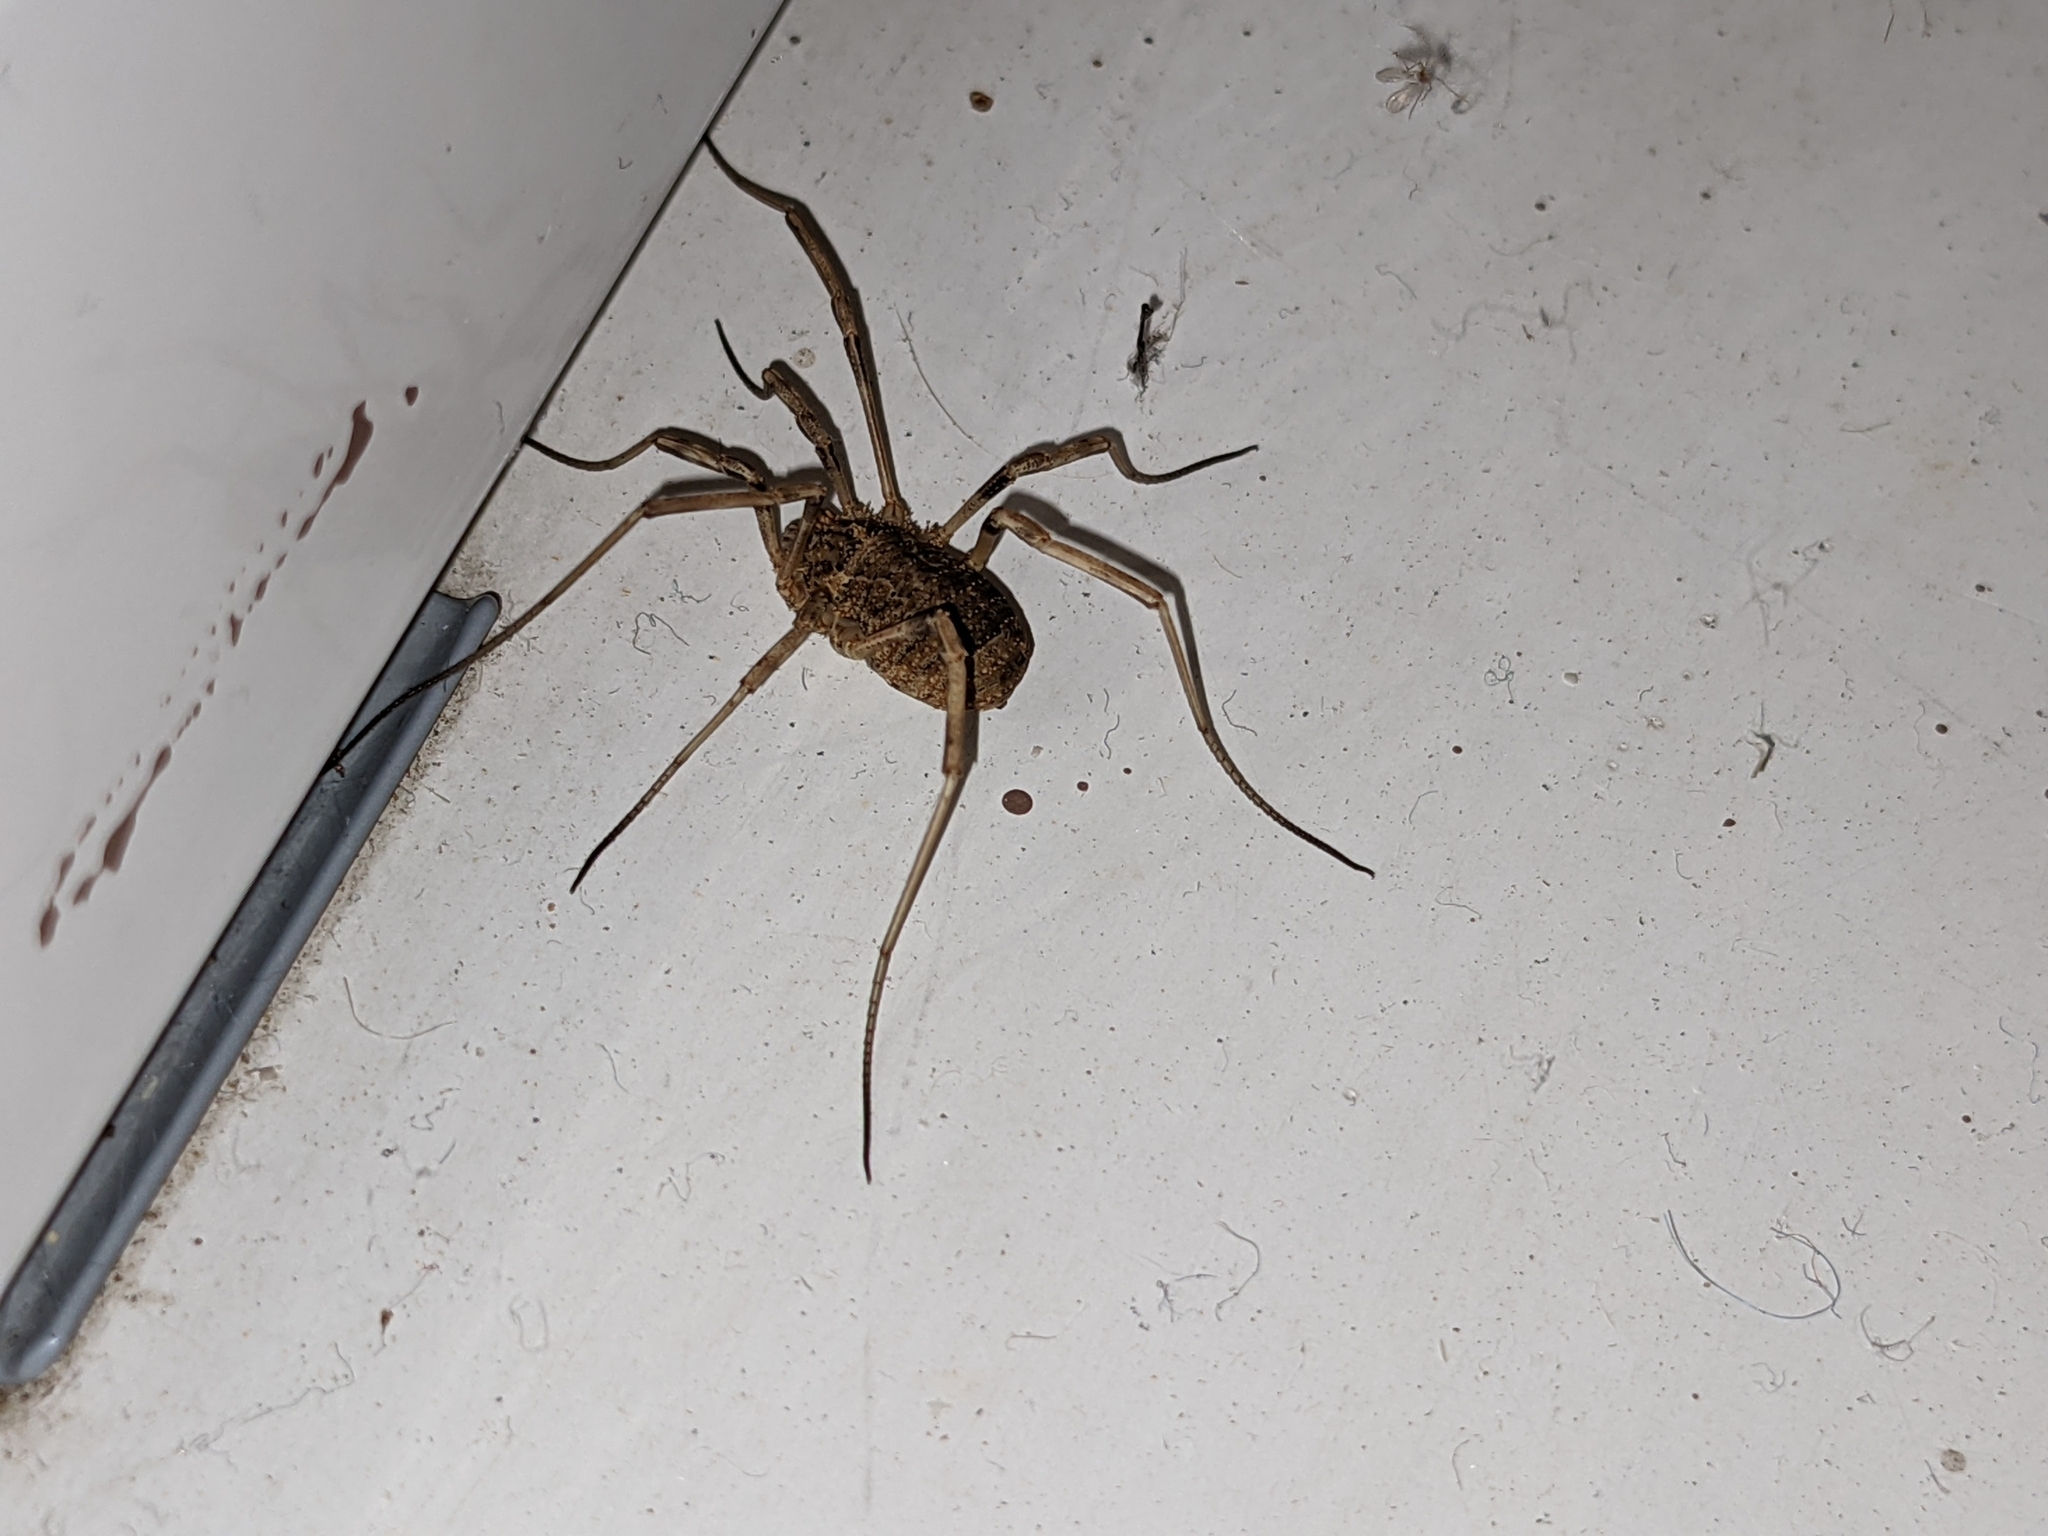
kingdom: Animalia
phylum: Arthropoda
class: Arachnida
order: Opiliones
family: Phalangiidae
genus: Odiellus
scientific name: Odiellus spinosus
